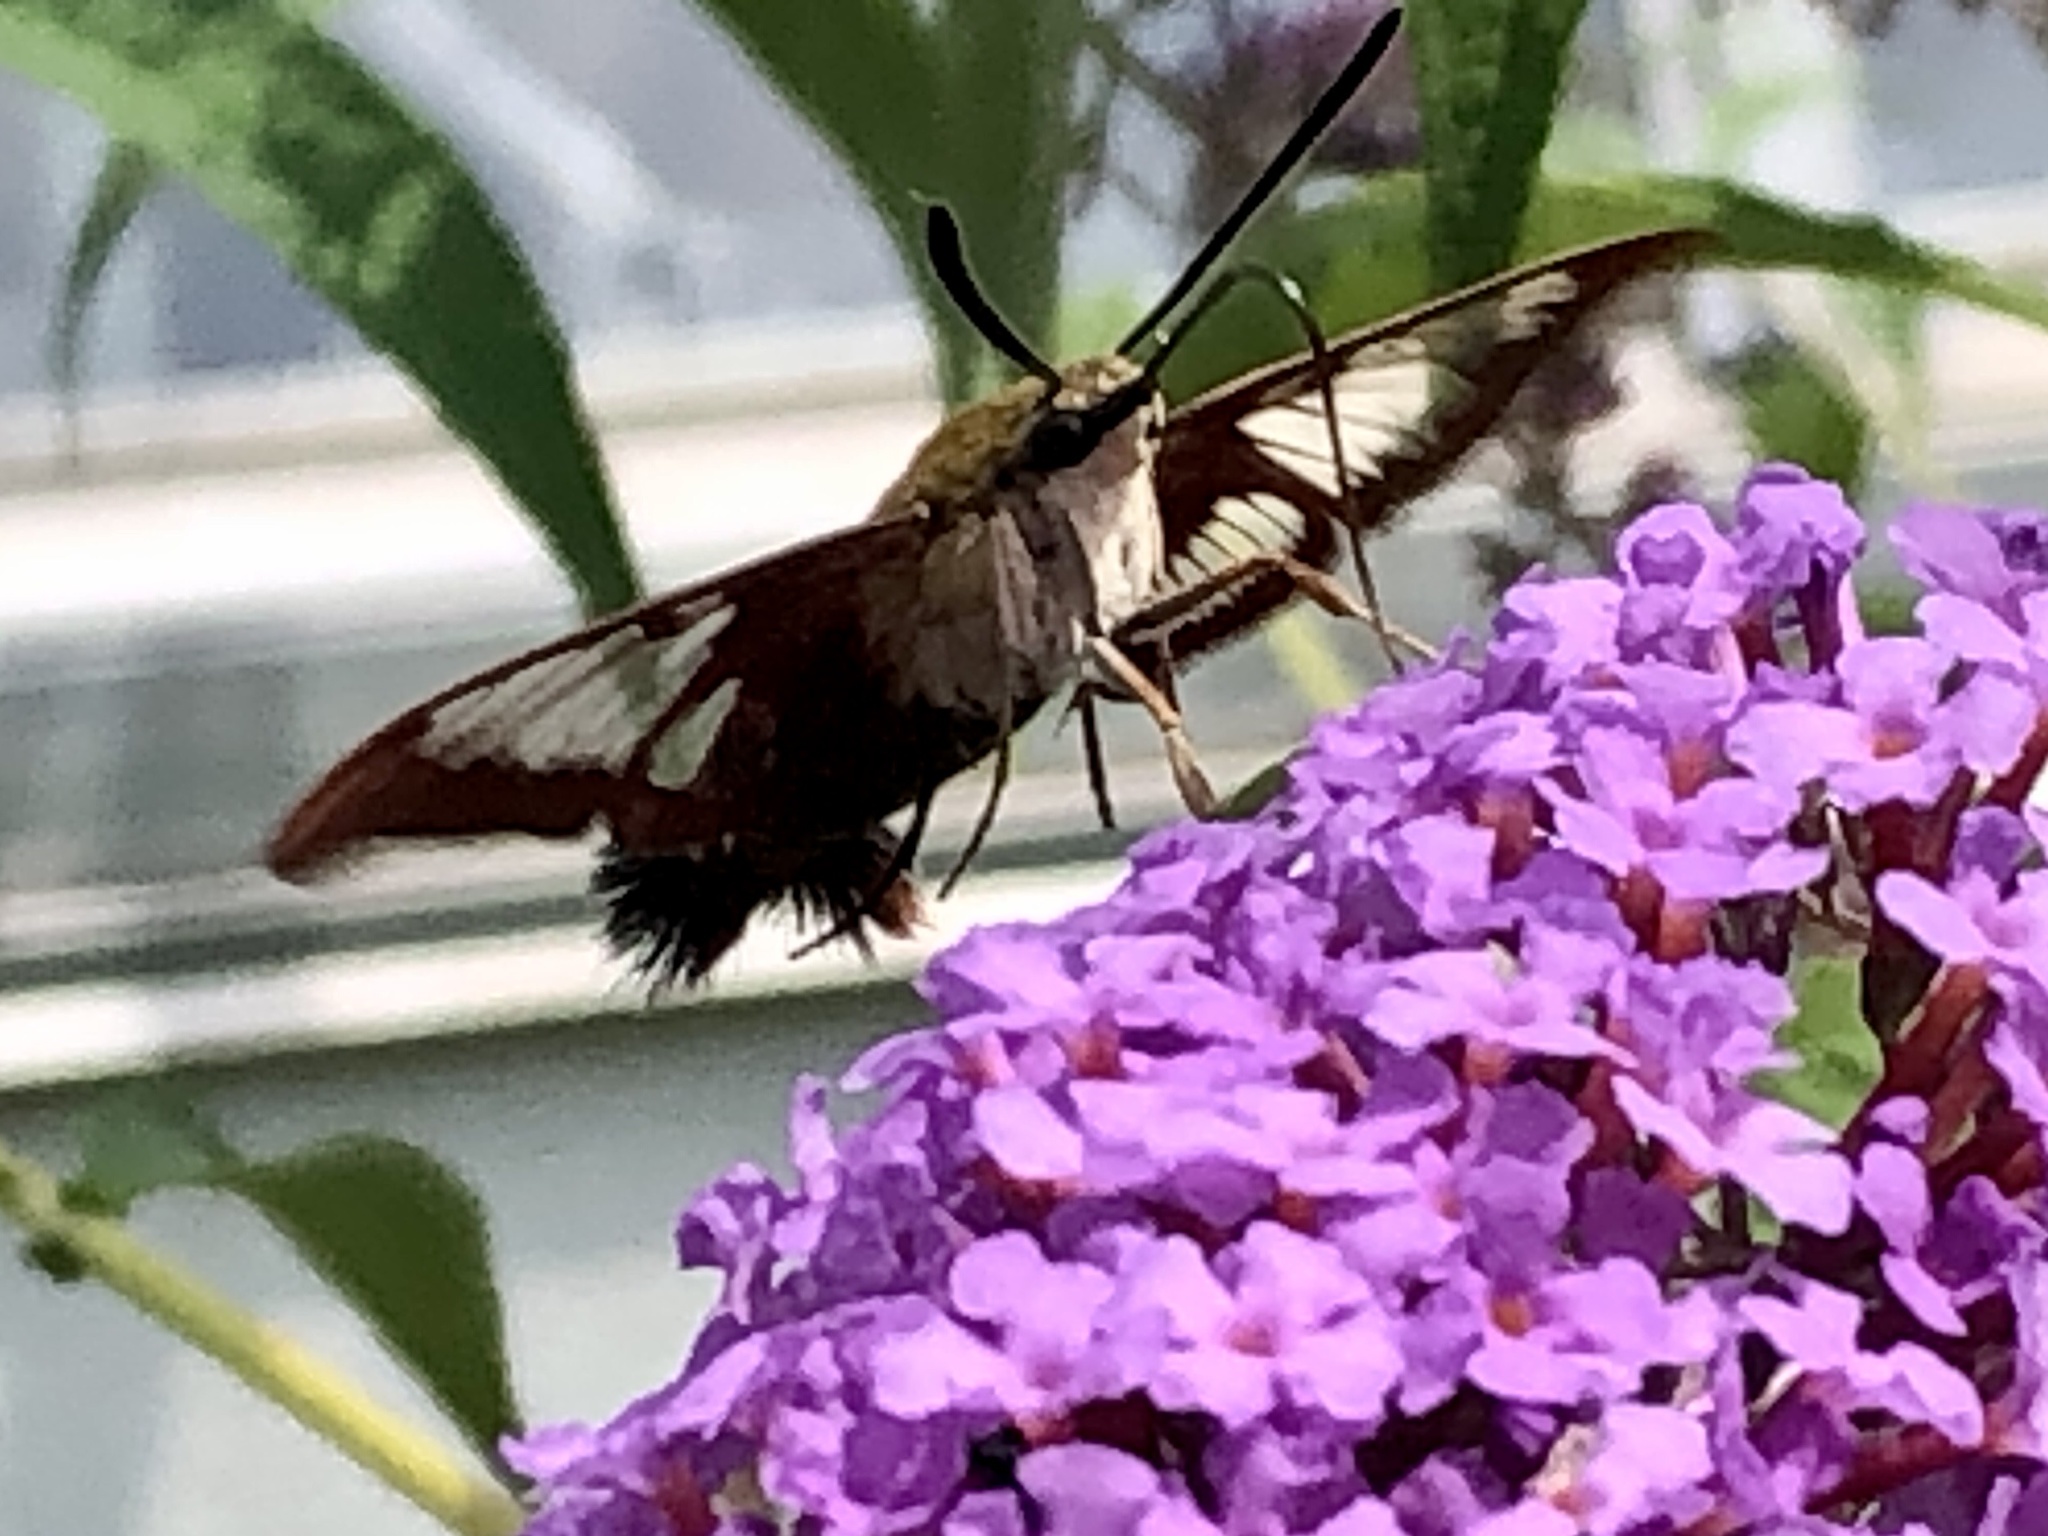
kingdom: Animalia
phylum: Arthropoda
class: Insecta
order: Lepidoptera
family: Sphingidae
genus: Hemaris
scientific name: Hemaris thysbe
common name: Common clear-wing
